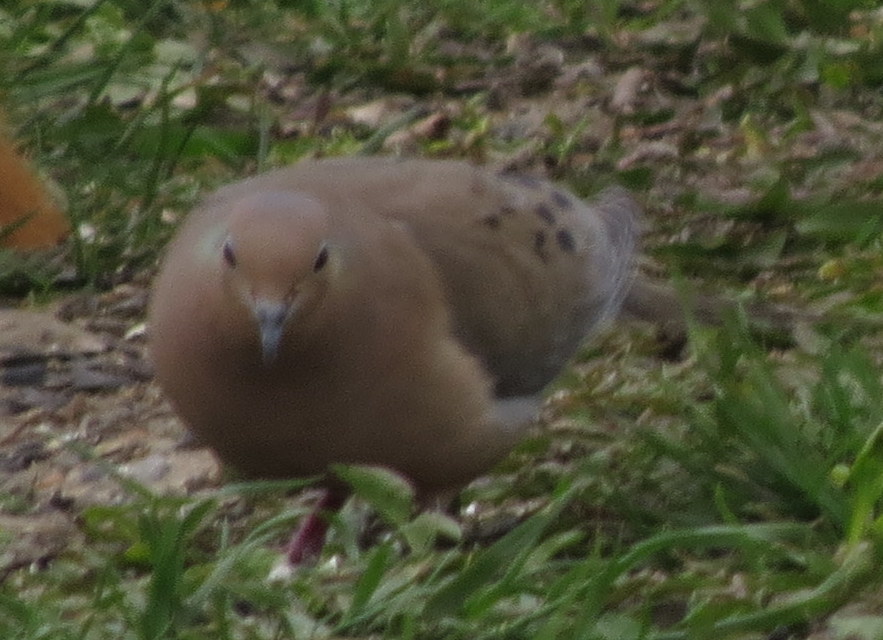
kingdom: Animalia
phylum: Chordata
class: Aves
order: Columbiformes
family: Columbidae
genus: Zenaida
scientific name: Zenaida macroura
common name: Mourning dove
